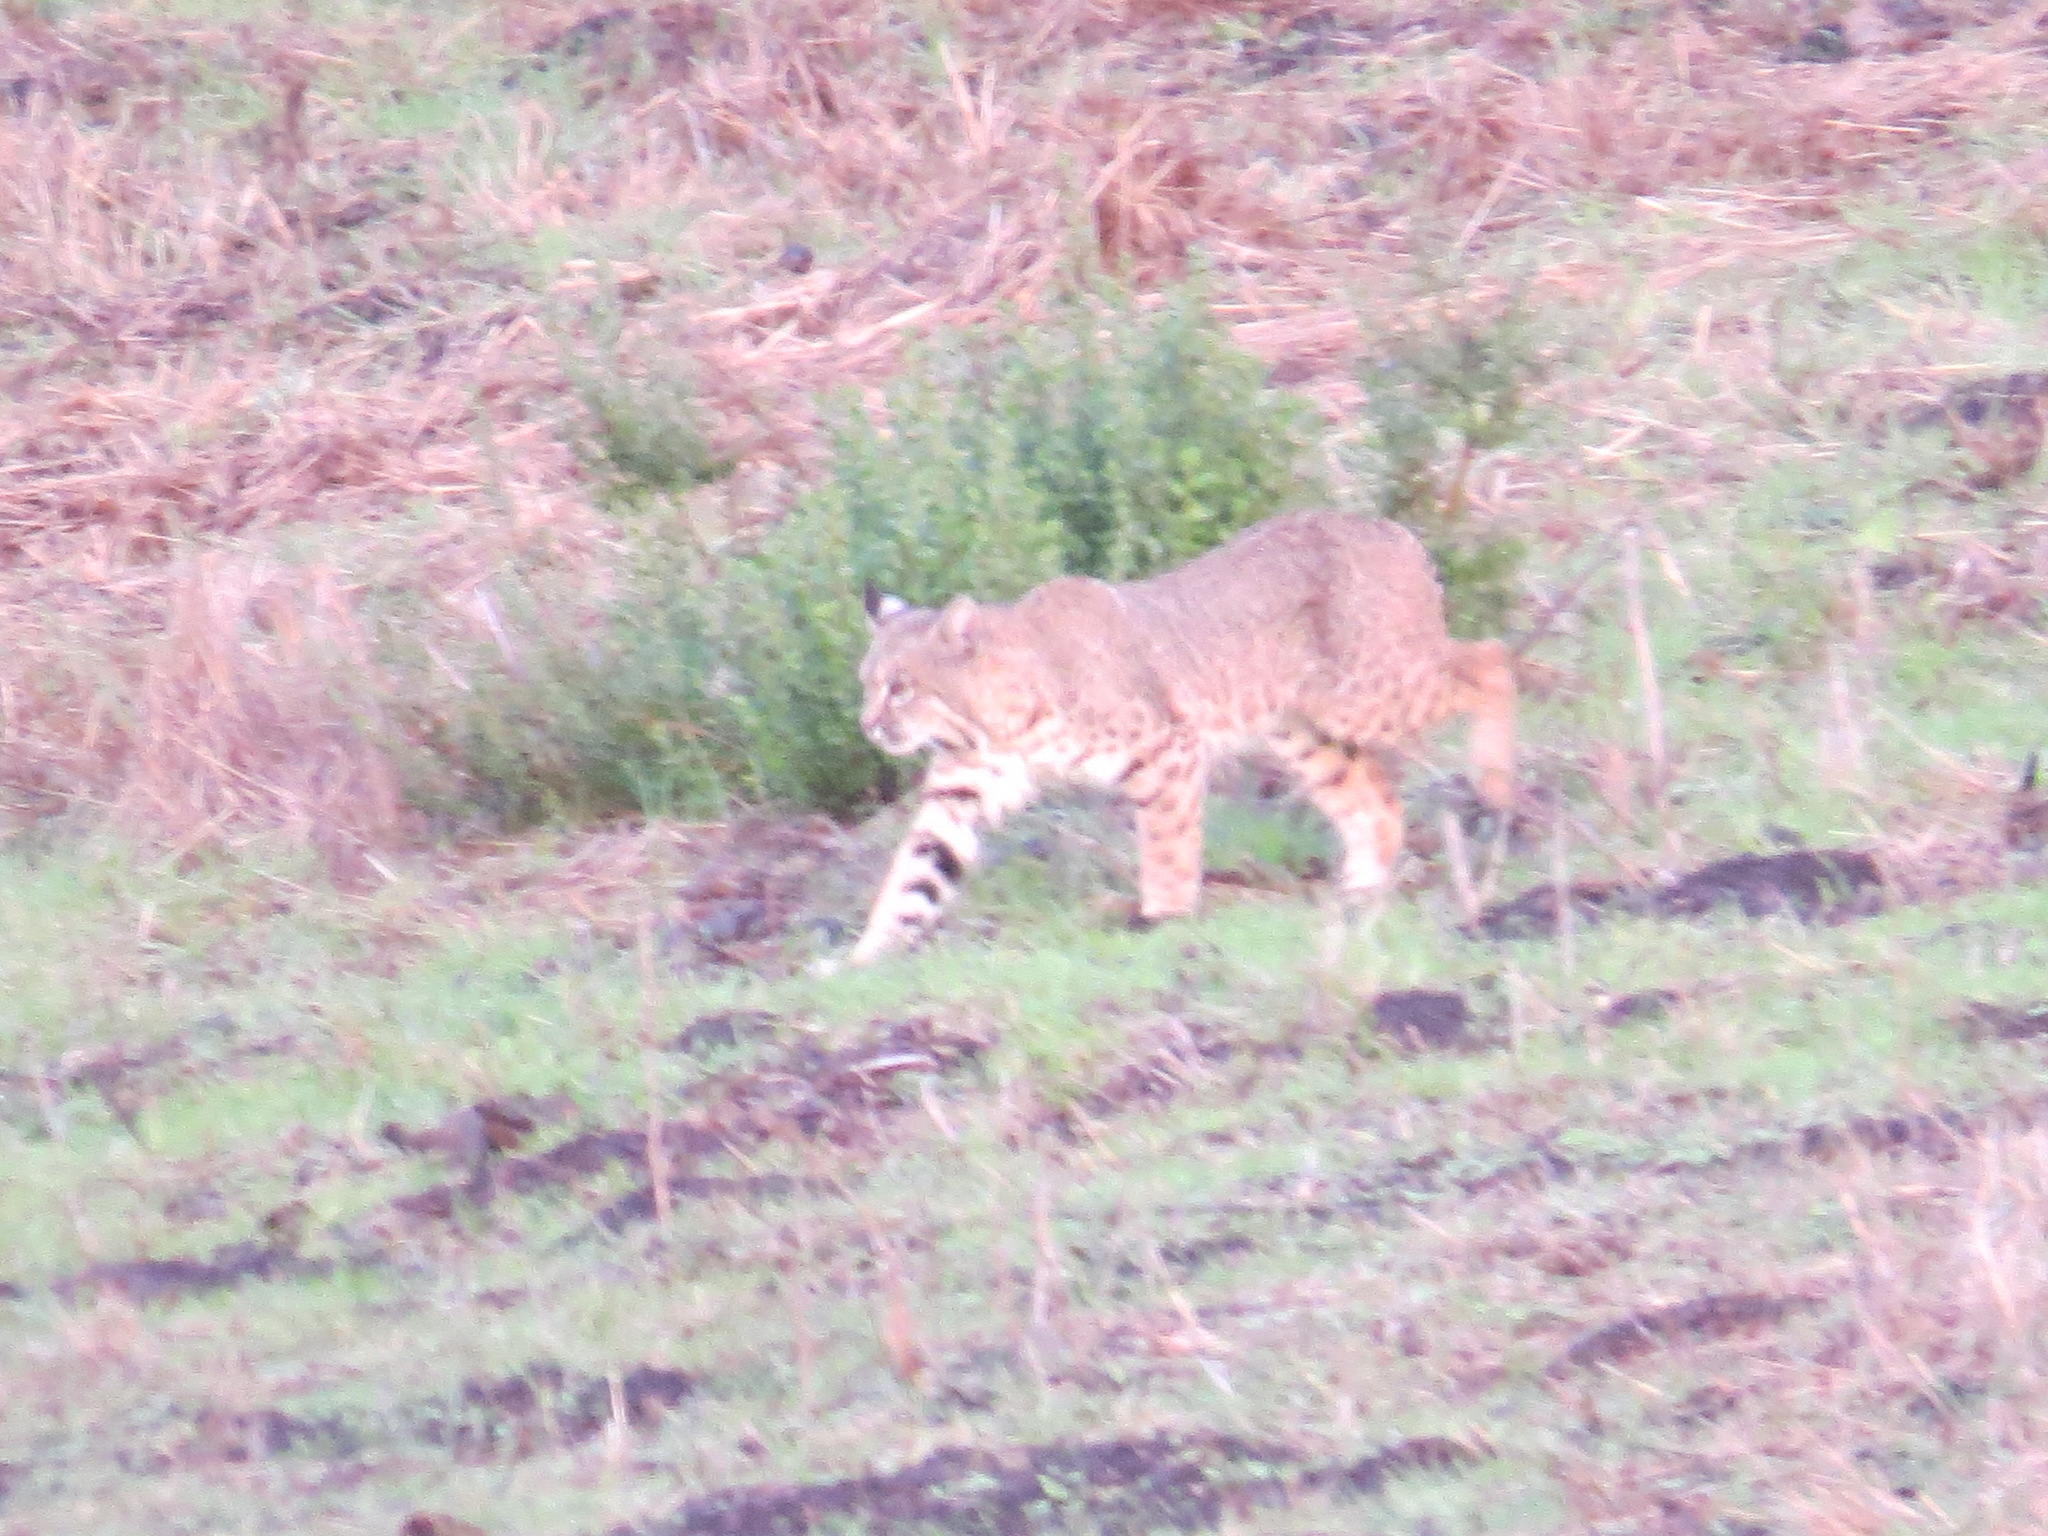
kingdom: Animalia
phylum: Chordata
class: Mammalia
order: Carnivora
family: Felidae
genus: Lynx
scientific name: Lynx rufus
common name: Bobcat
